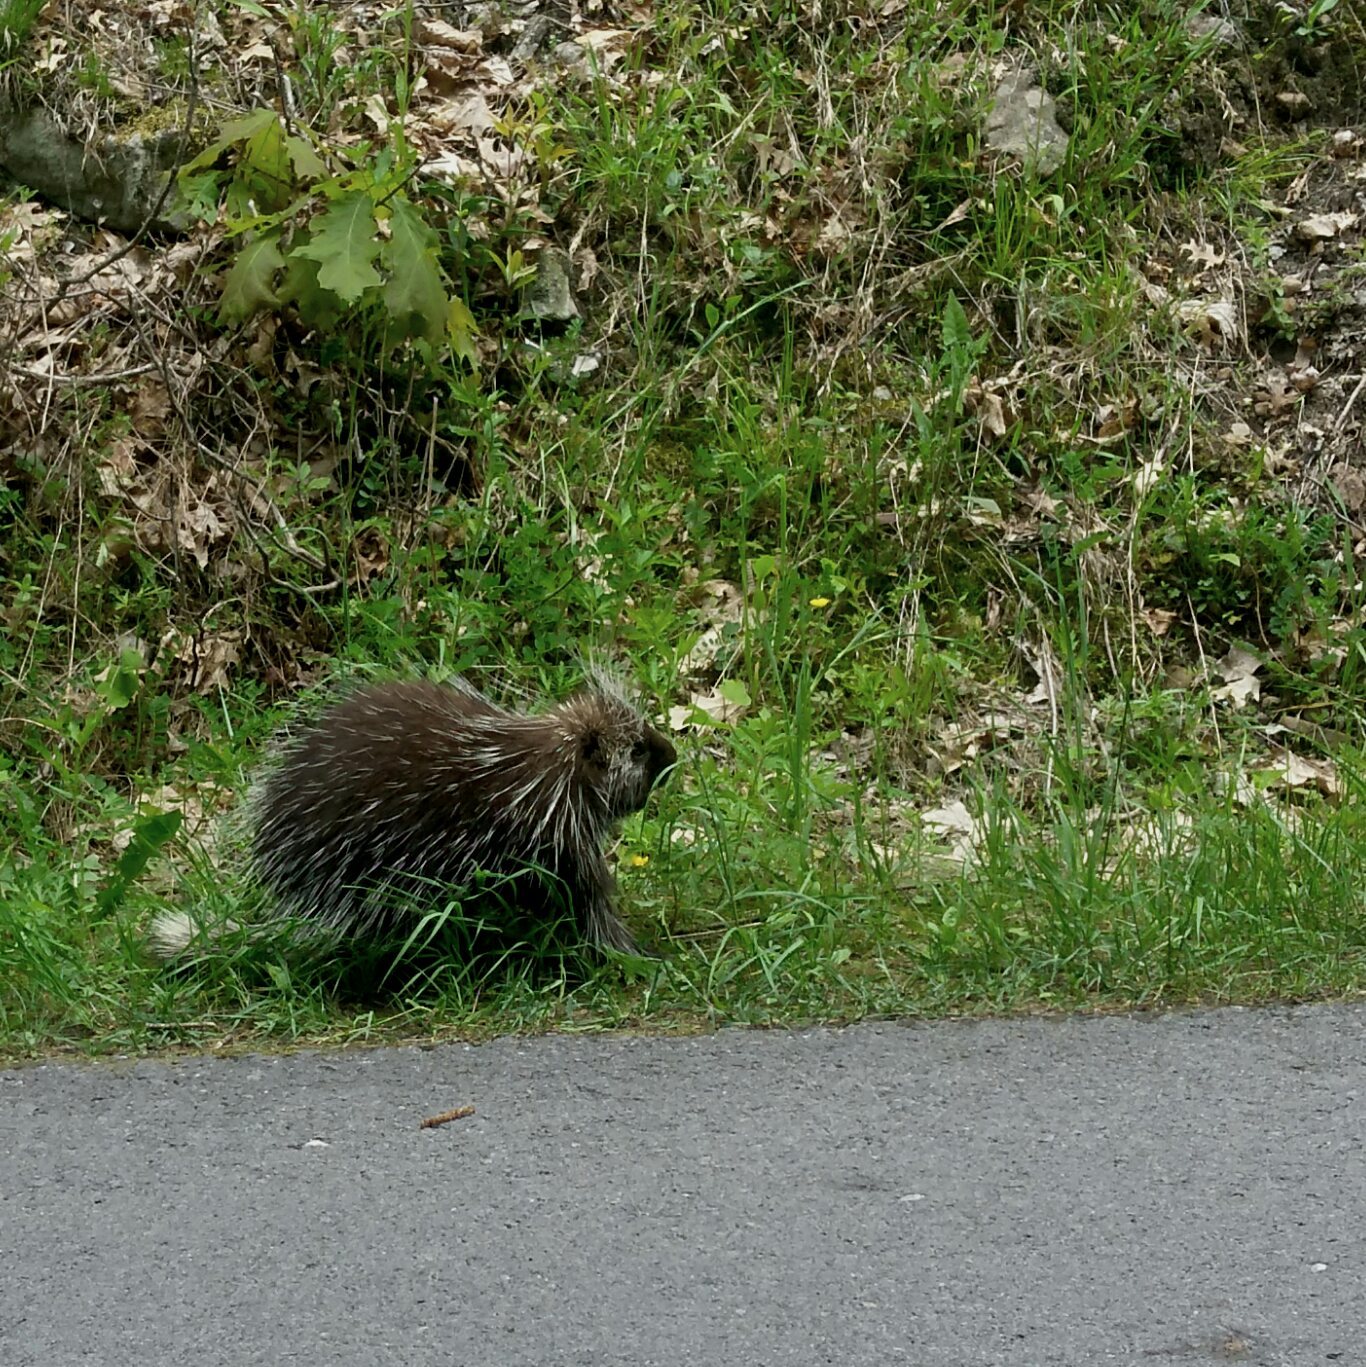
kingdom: Animalia
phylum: Chordata
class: Mammalia
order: Rodentia
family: Erethizontidae
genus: Erethizon
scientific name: Erethizon dorsatus
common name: North american porcupine
